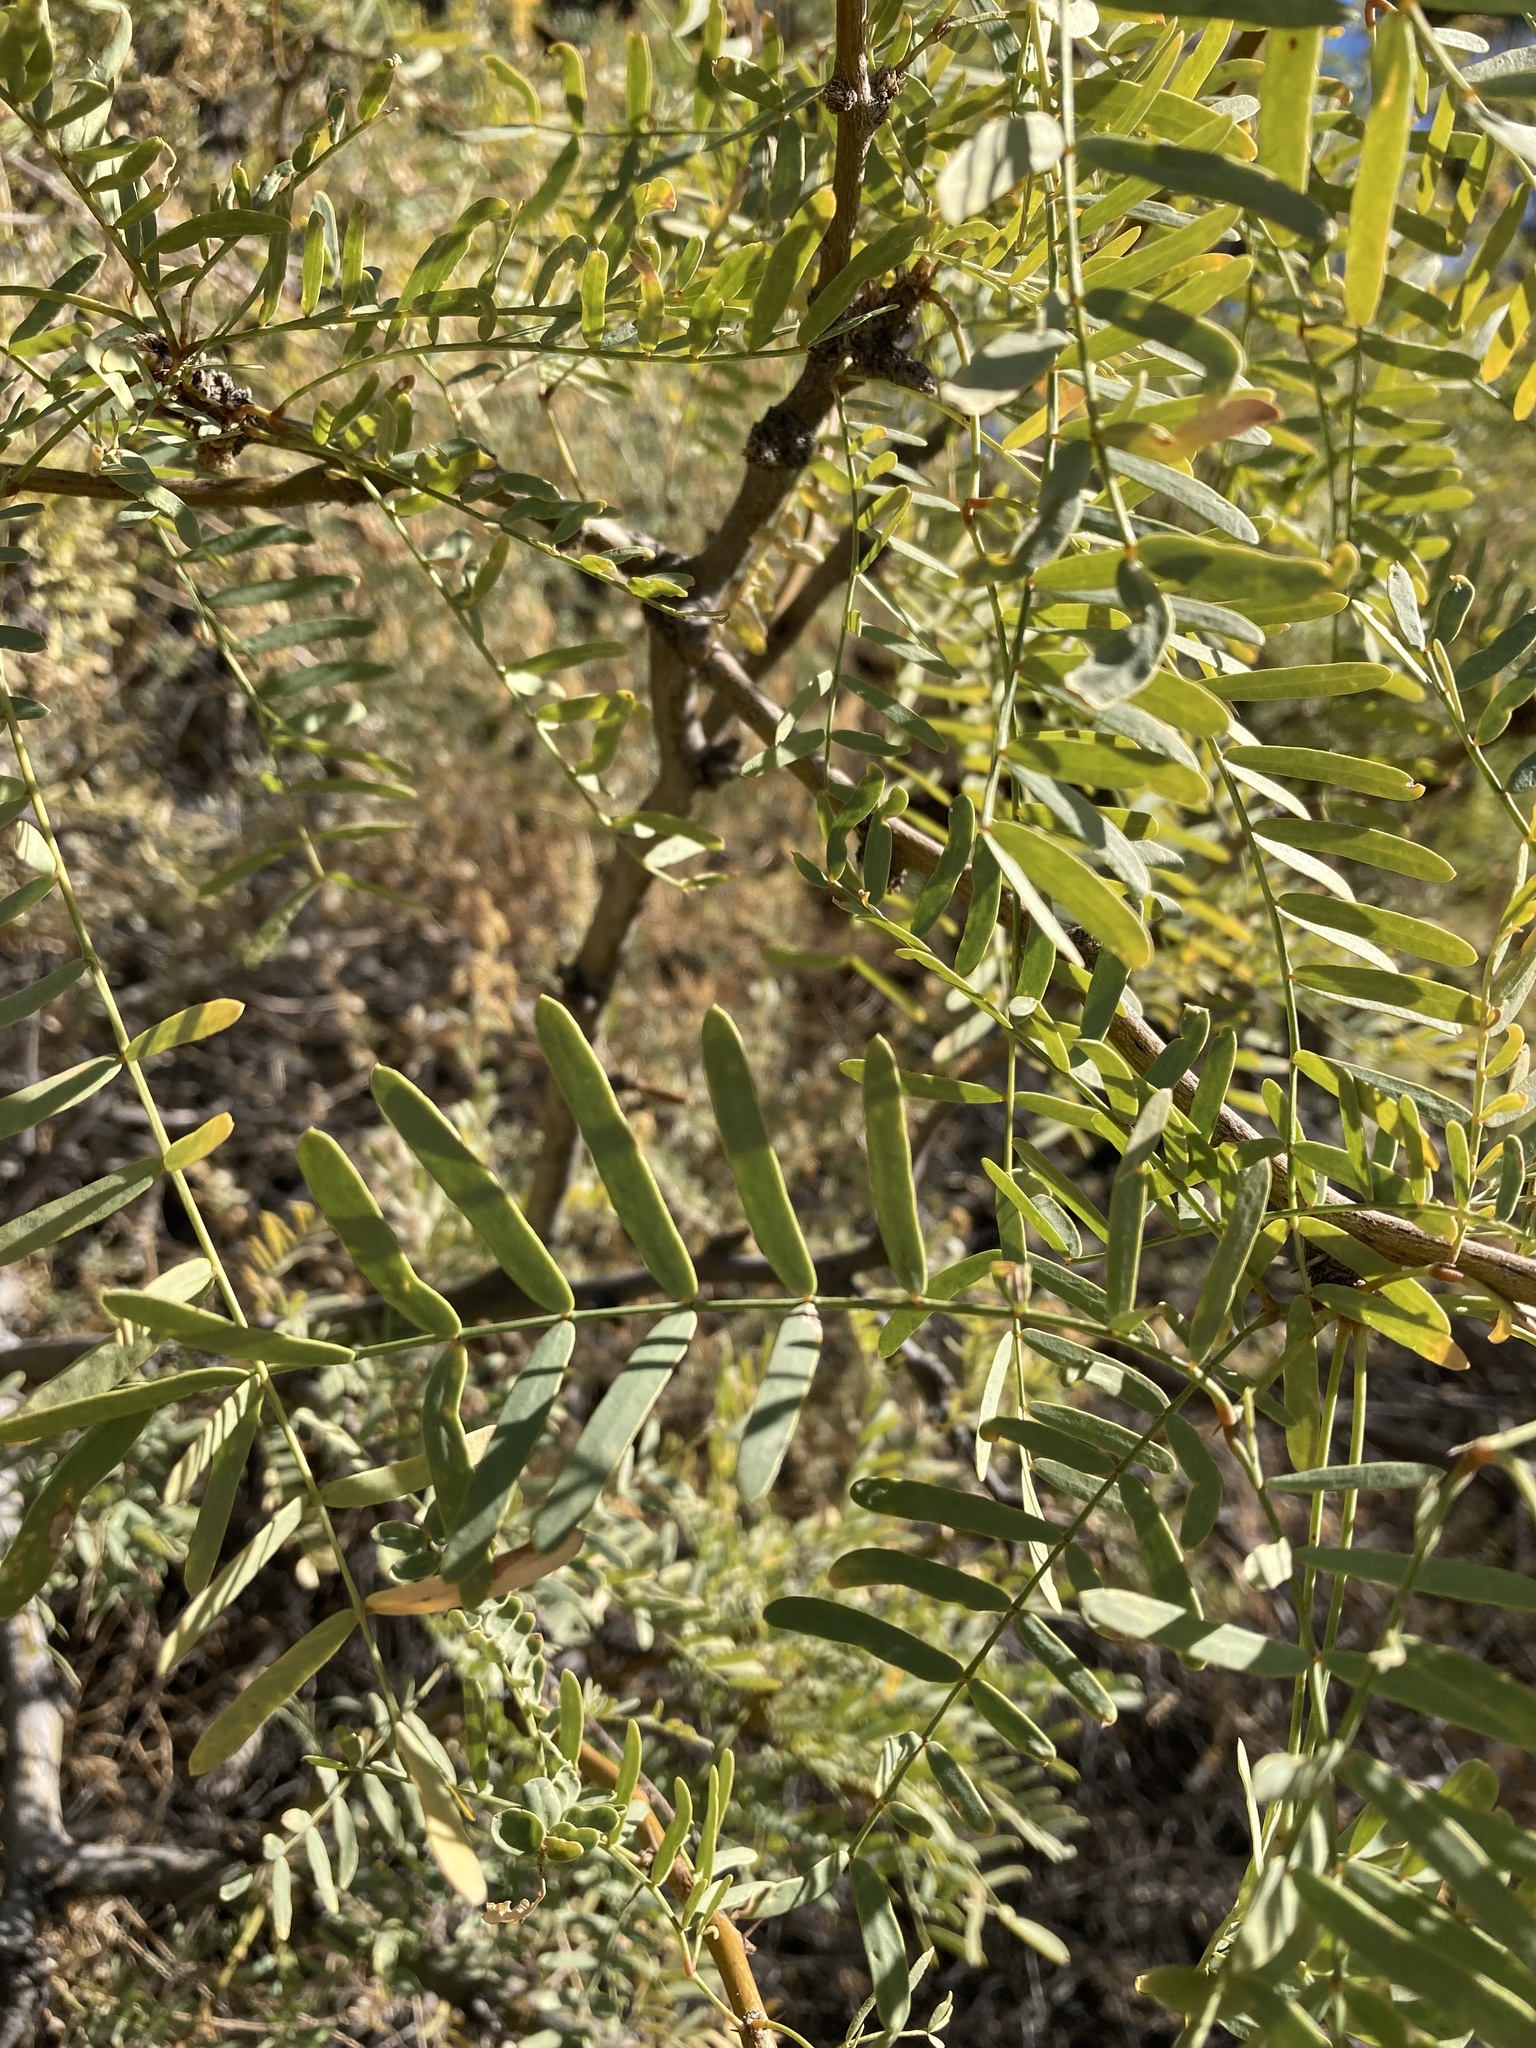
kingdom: Plantae
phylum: Tracheophyta
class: Magnoliopsida
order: Fabales
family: Fabaceae
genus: Prosopis
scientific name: Prosopis pubescens
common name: Screw-bean
